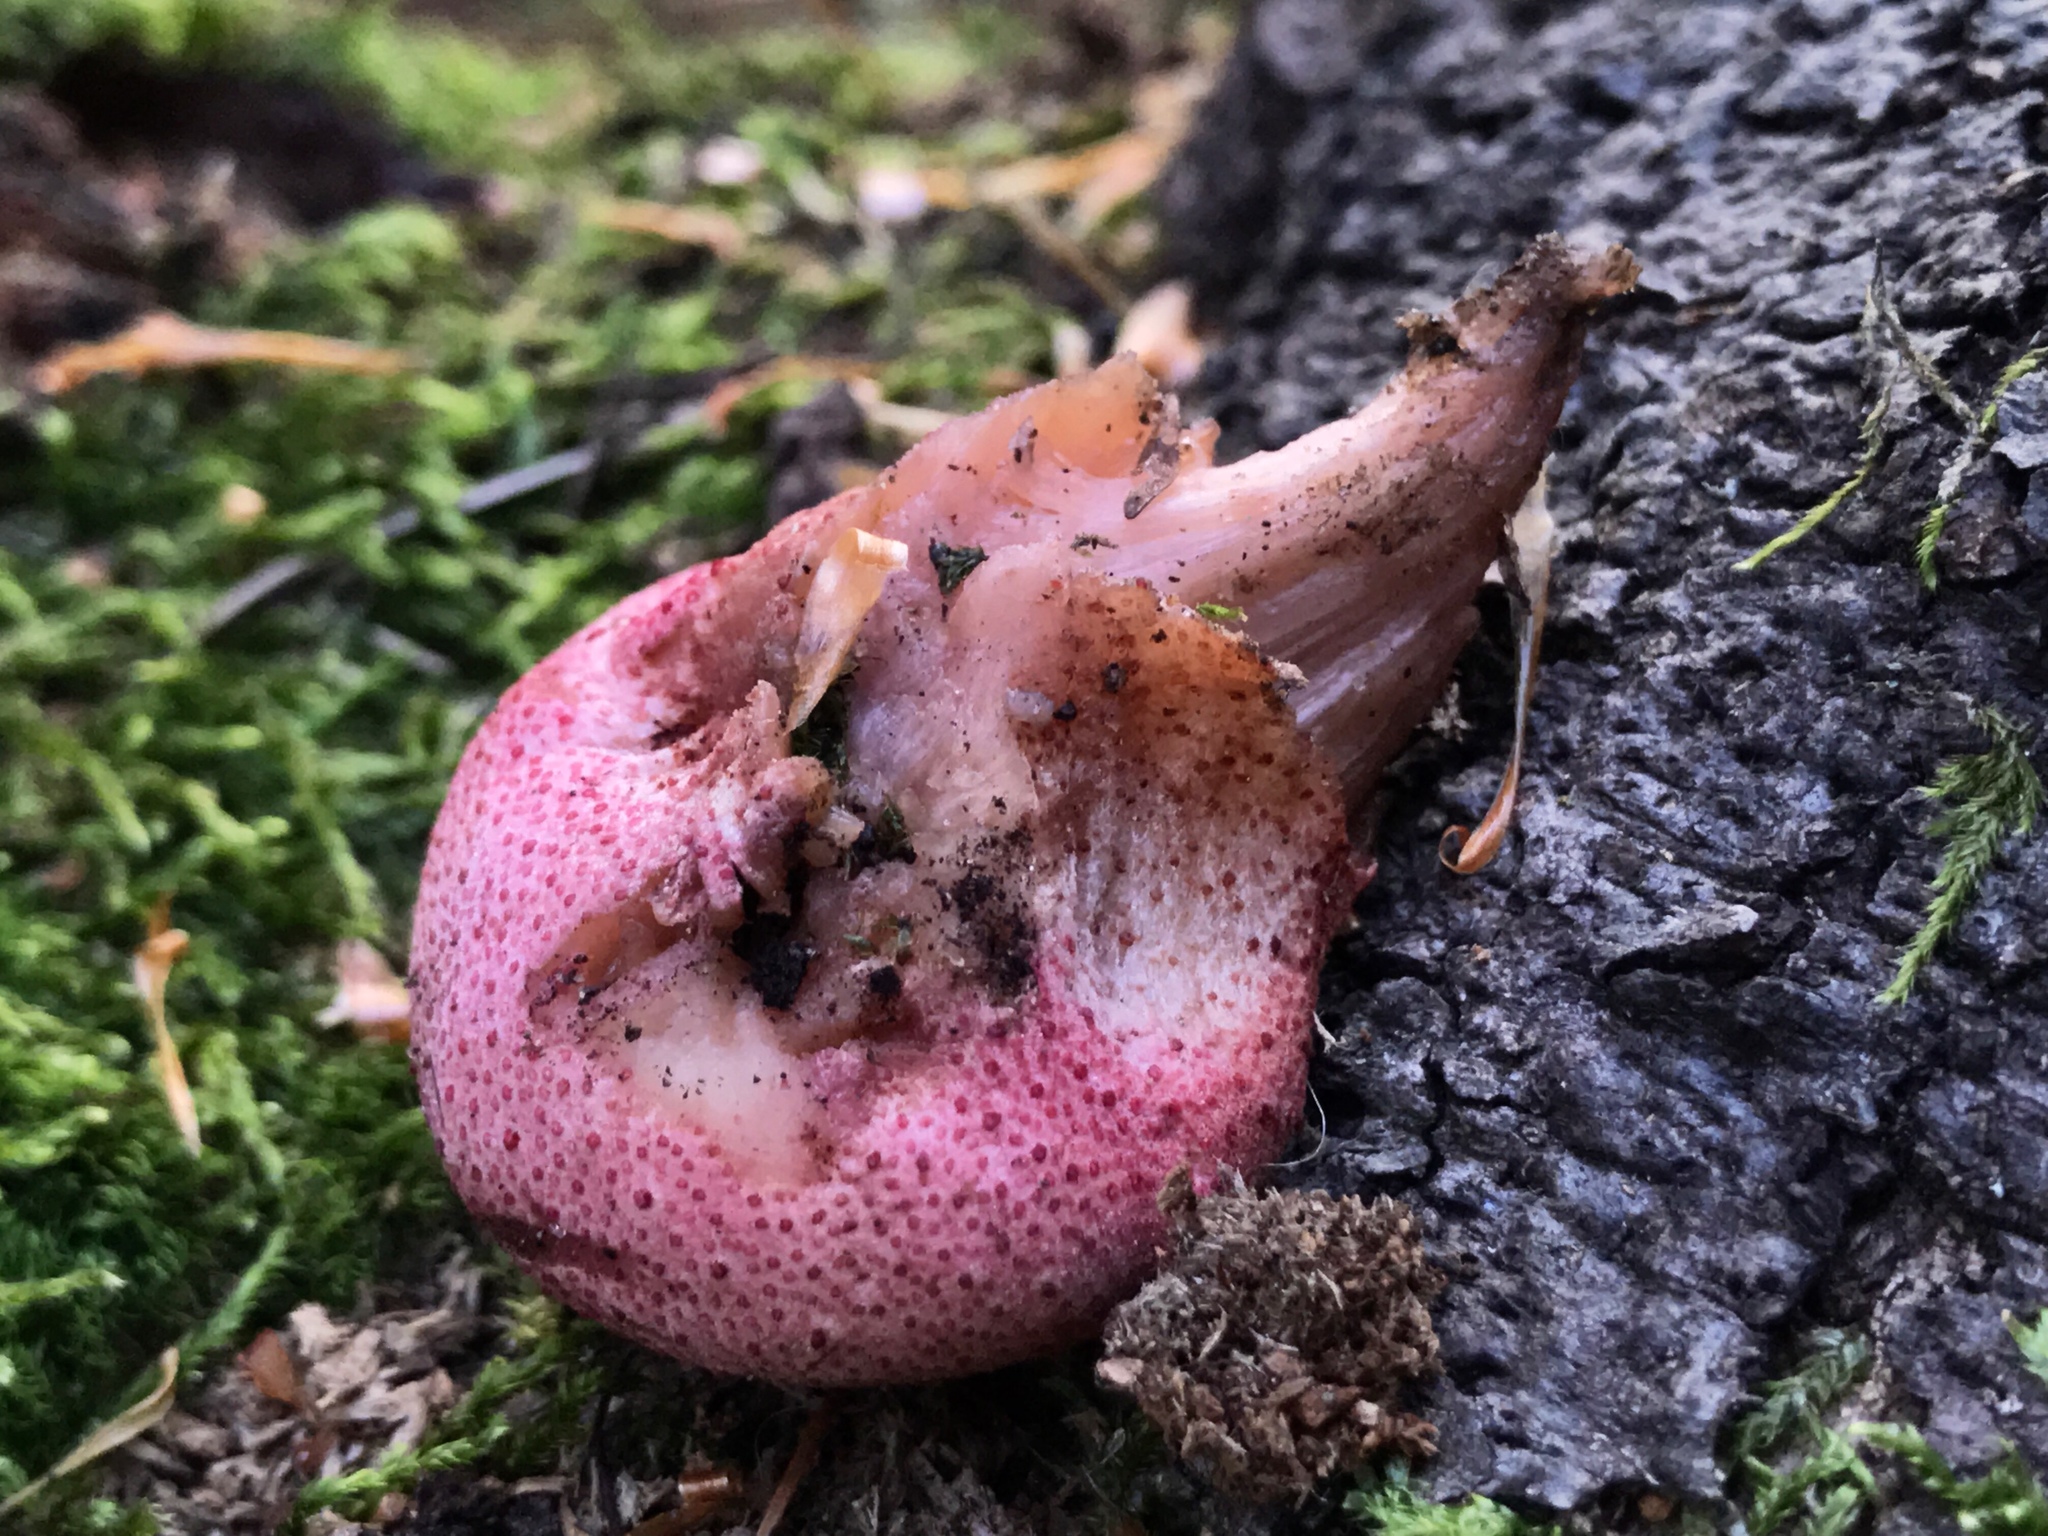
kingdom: Fungi
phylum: Basidiomycota
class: Agaricomycetes
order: Agaricales
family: Fistulinaceae
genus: Fistulina
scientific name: Fistulina hepatica
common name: Beef-steak fungus
